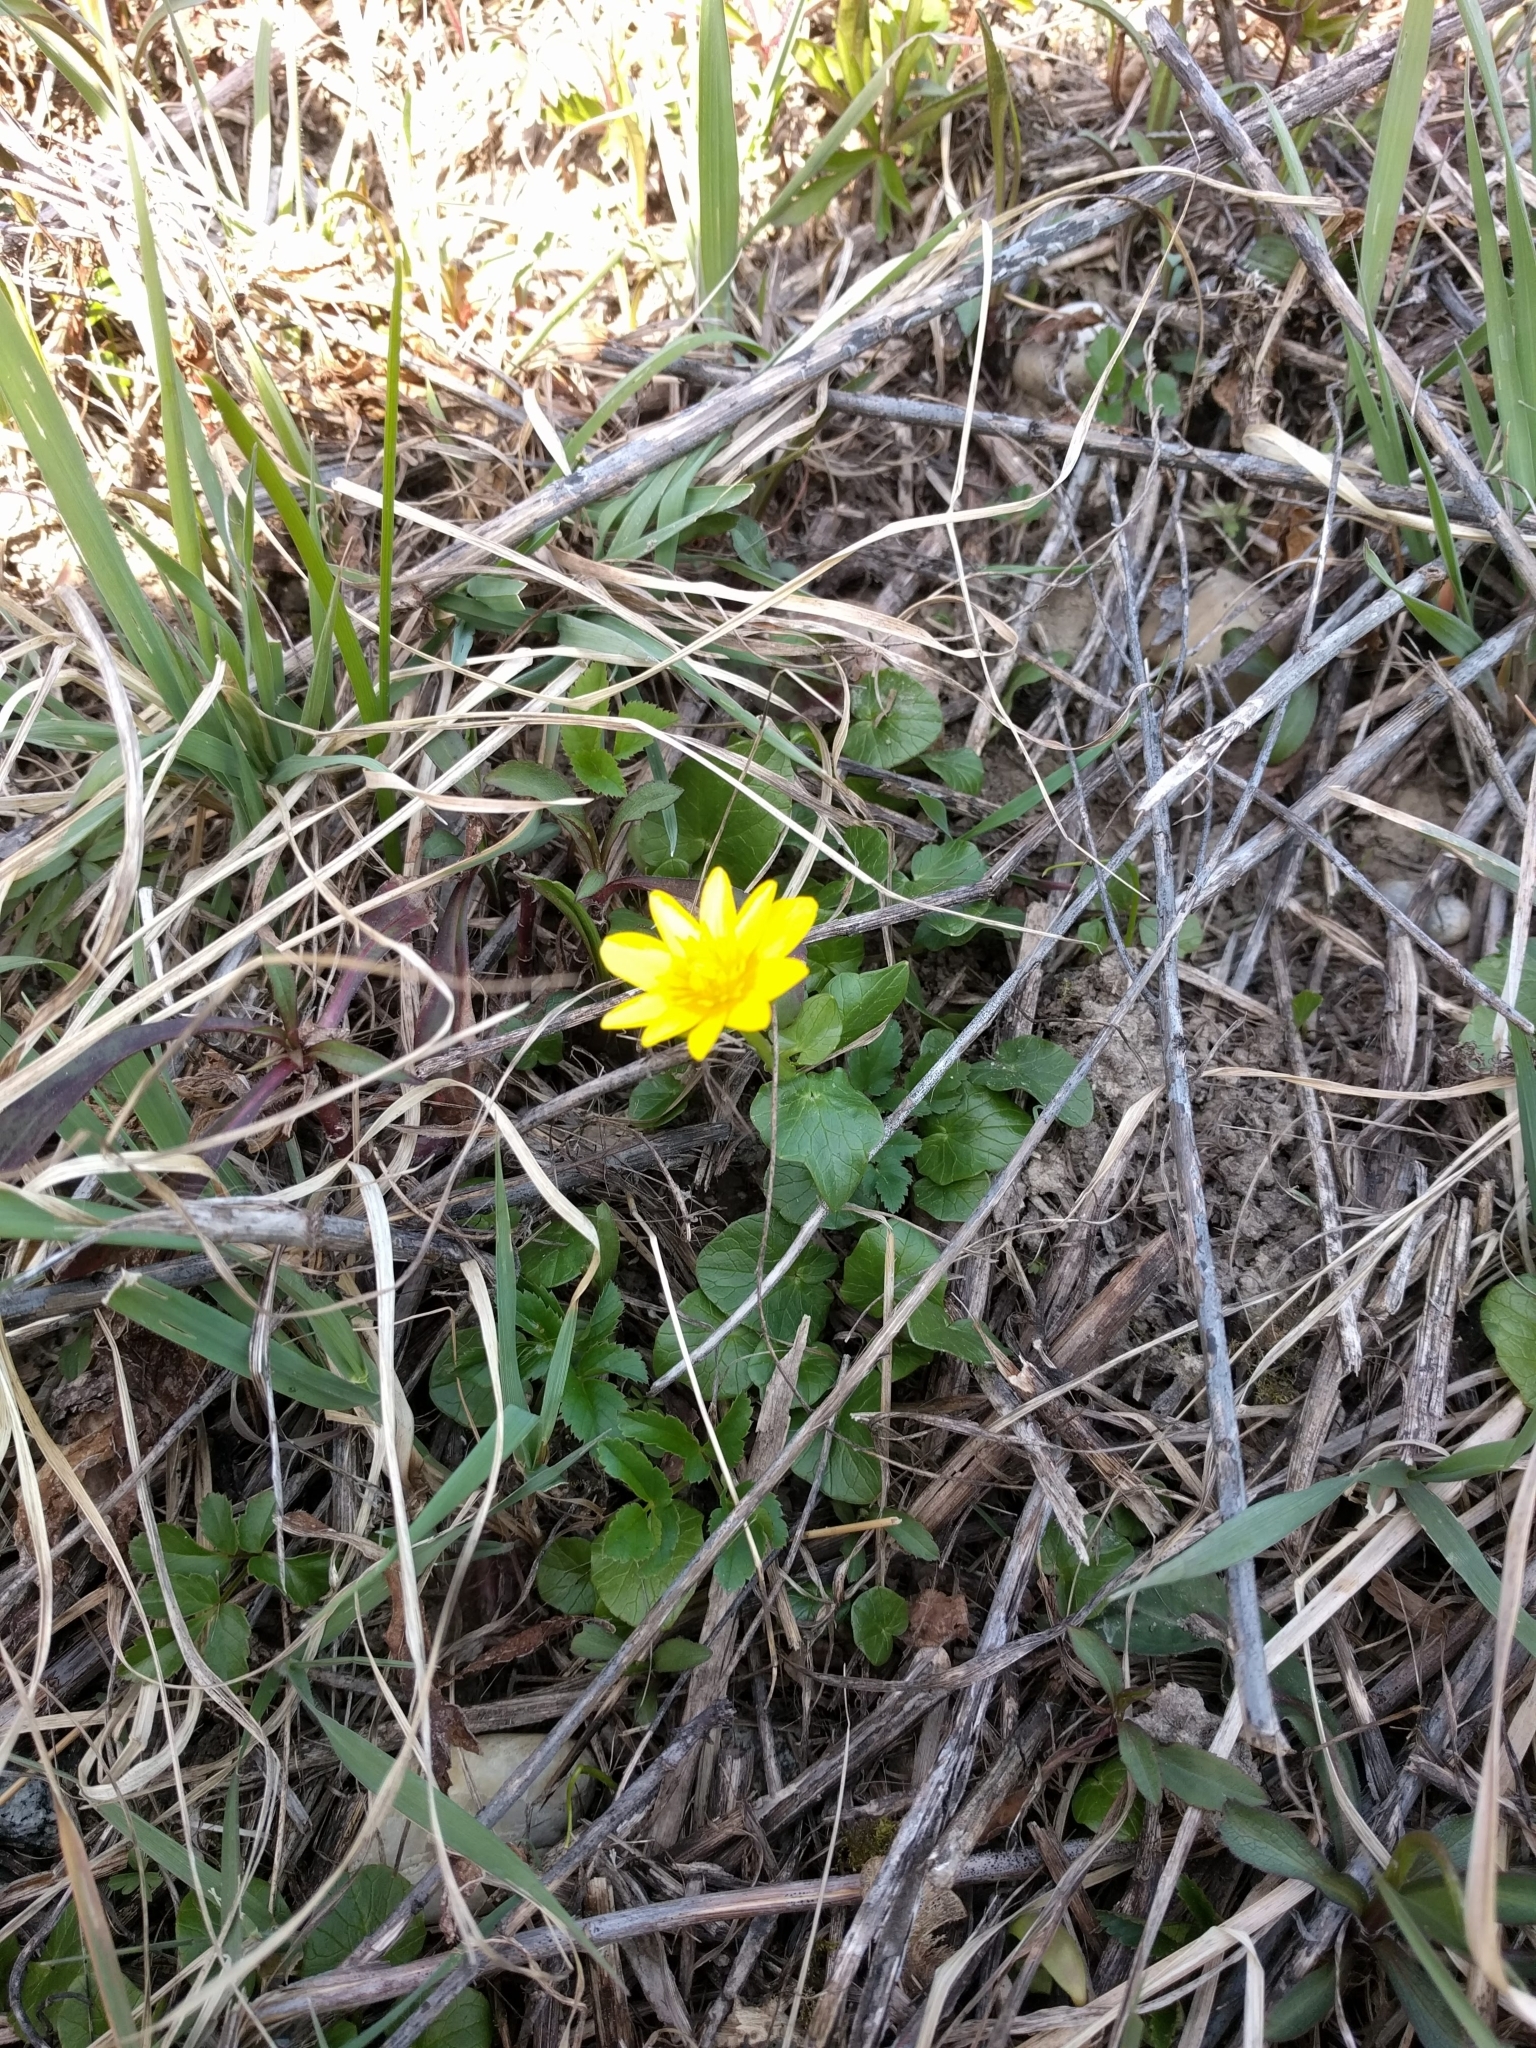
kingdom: Plantae
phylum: Tracheophyta
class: Magnoliopsida
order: Ranunculales
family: Ranunculaceae
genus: Ficaria
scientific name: Ficaria verna
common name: Lesser celandine
